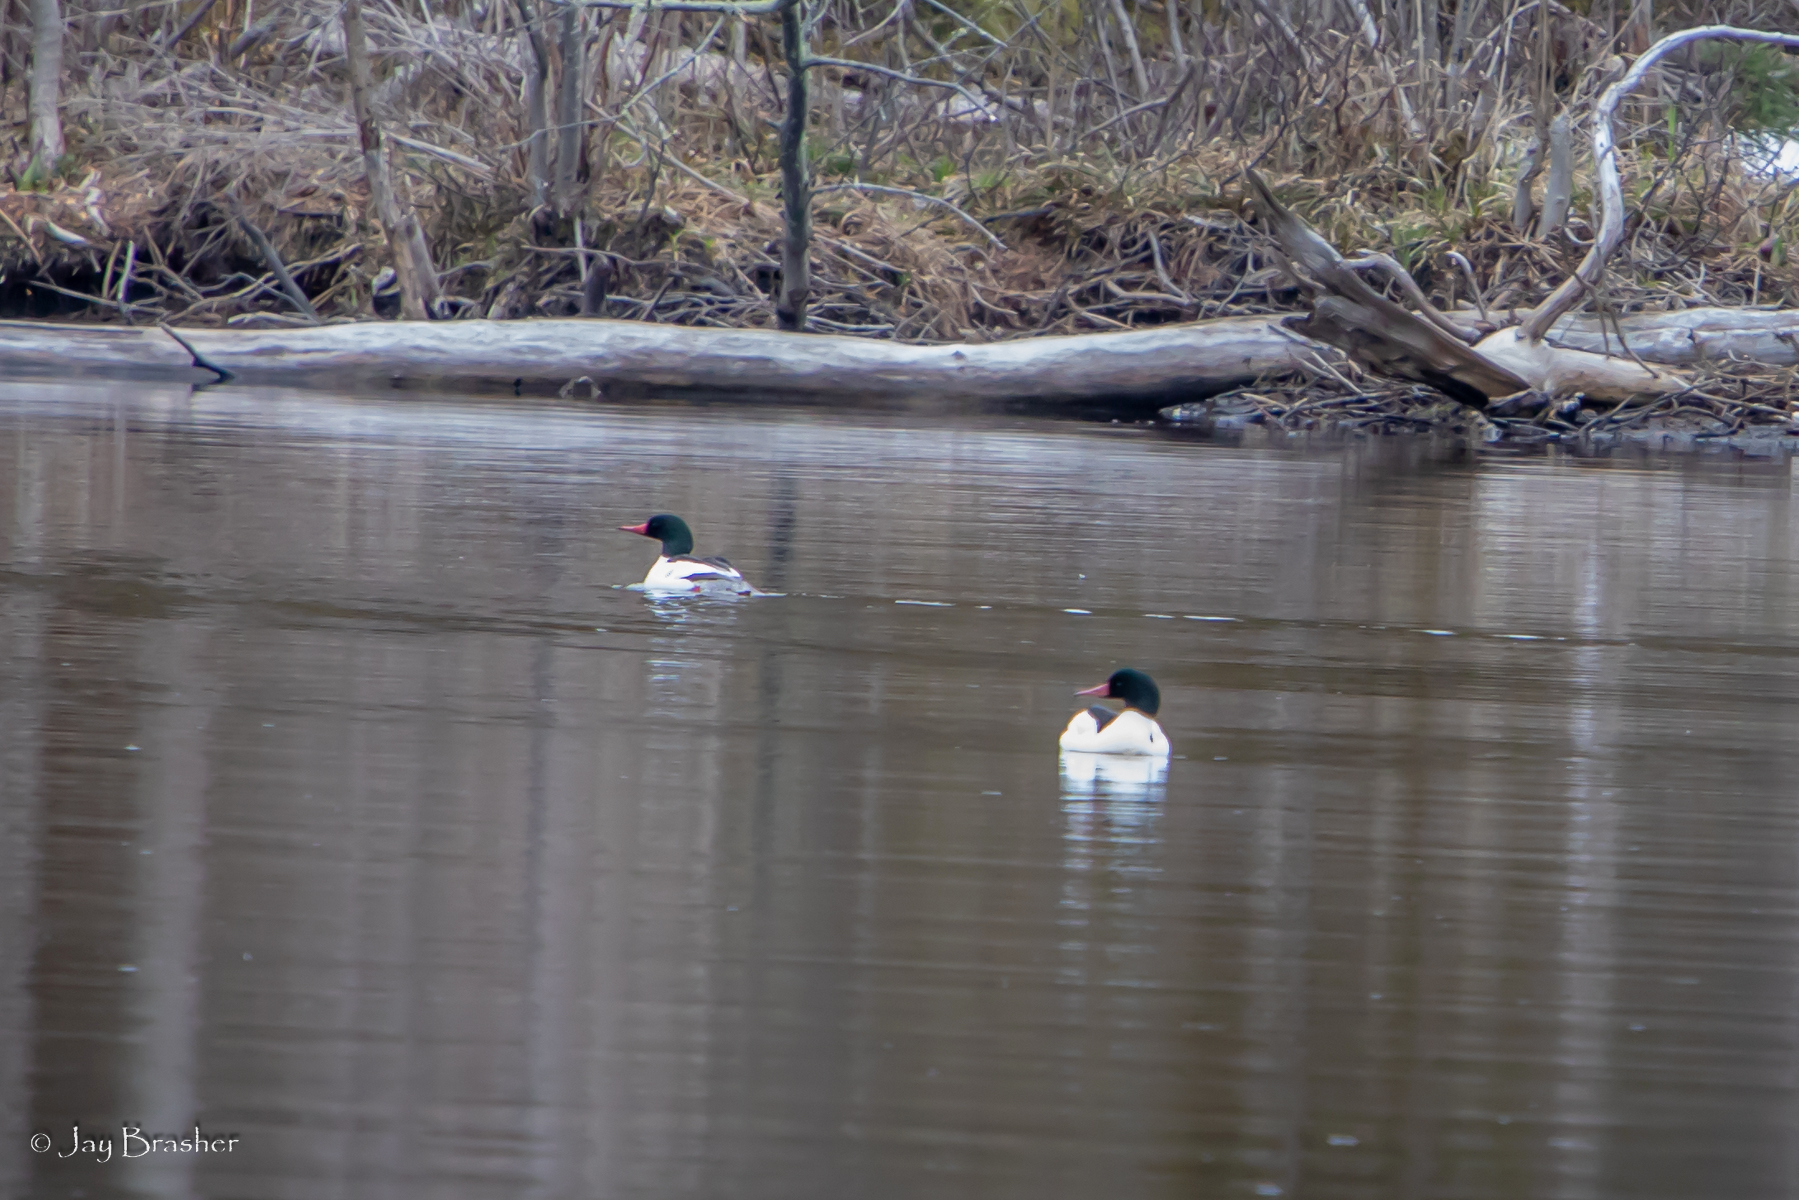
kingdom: Animalia
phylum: Chordata
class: Aves
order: Anseriformes
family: Anatidae
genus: Mergus
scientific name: Mergus merganser
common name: Common merganser
